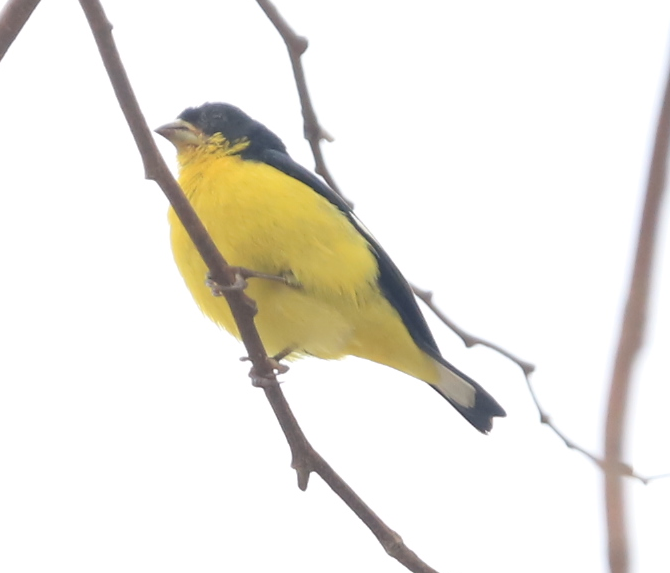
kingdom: Animalia
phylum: Chordata
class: Aves
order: Passeriformes
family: Fringillidae
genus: Spinus
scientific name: Spinus psaltria
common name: Lesser goldfinch
